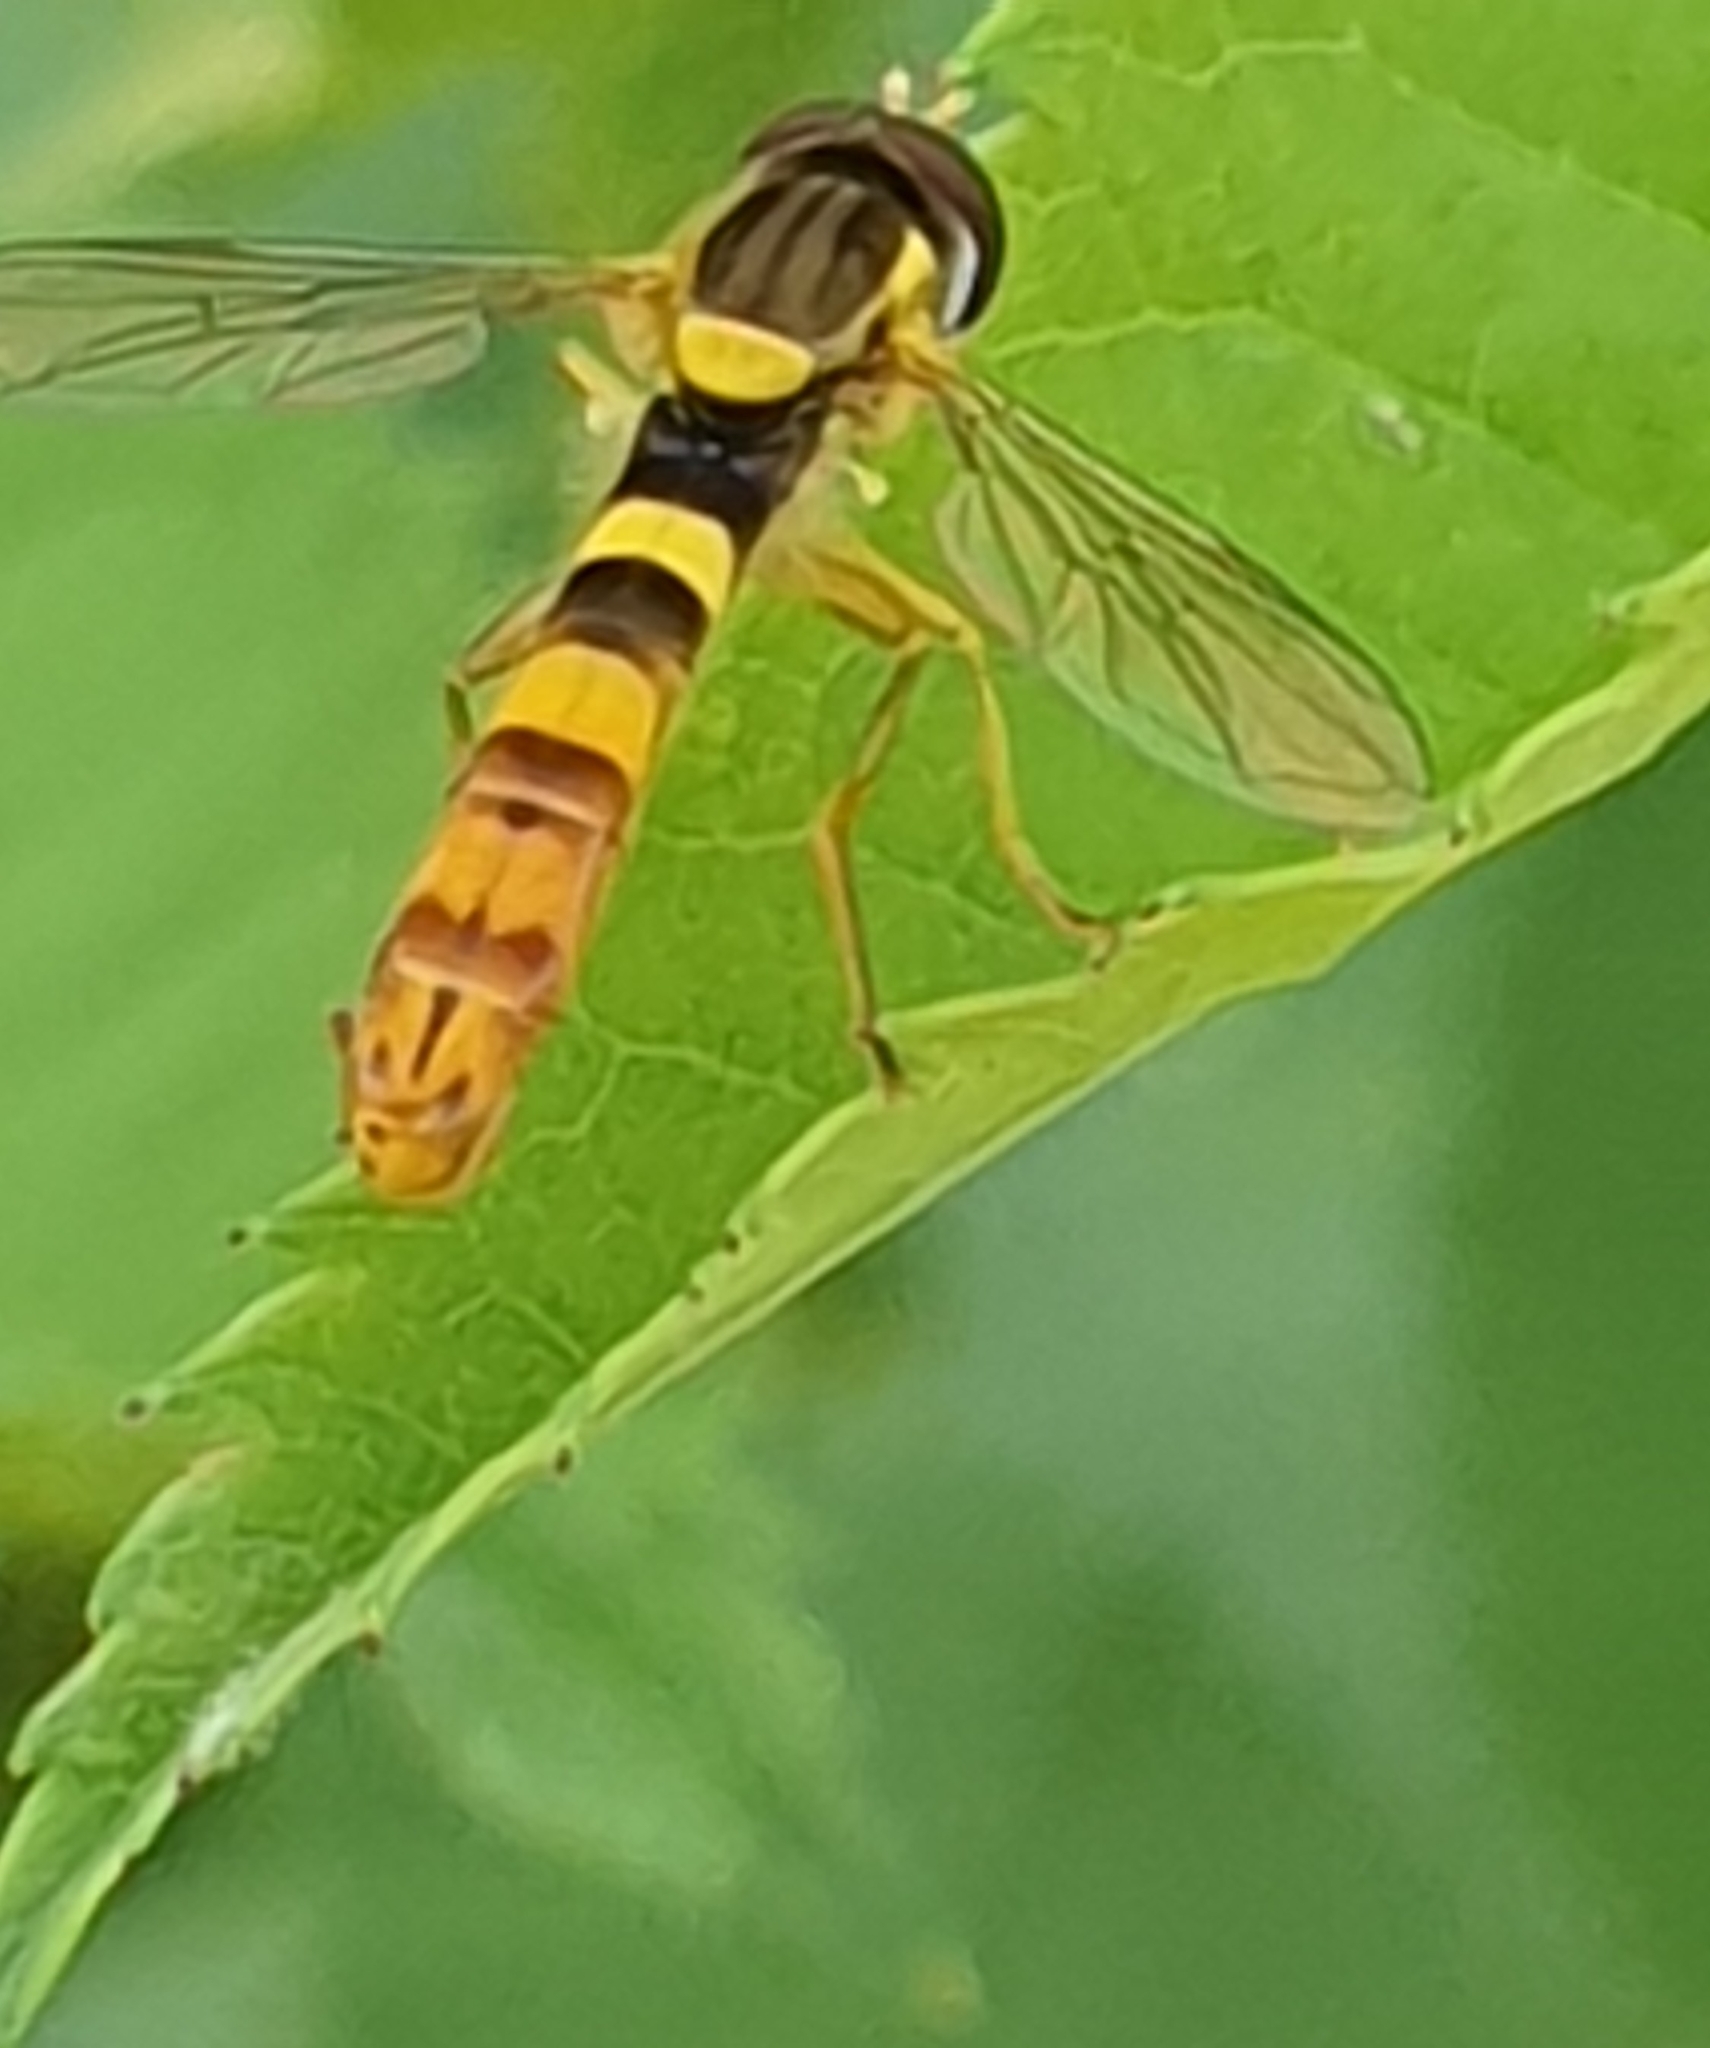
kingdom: Animalia
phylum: Arthropoda
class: Insecta
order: Diptera
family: Syrphidae
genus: Sphaerophoria
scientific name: Sphaerophoria scripta
